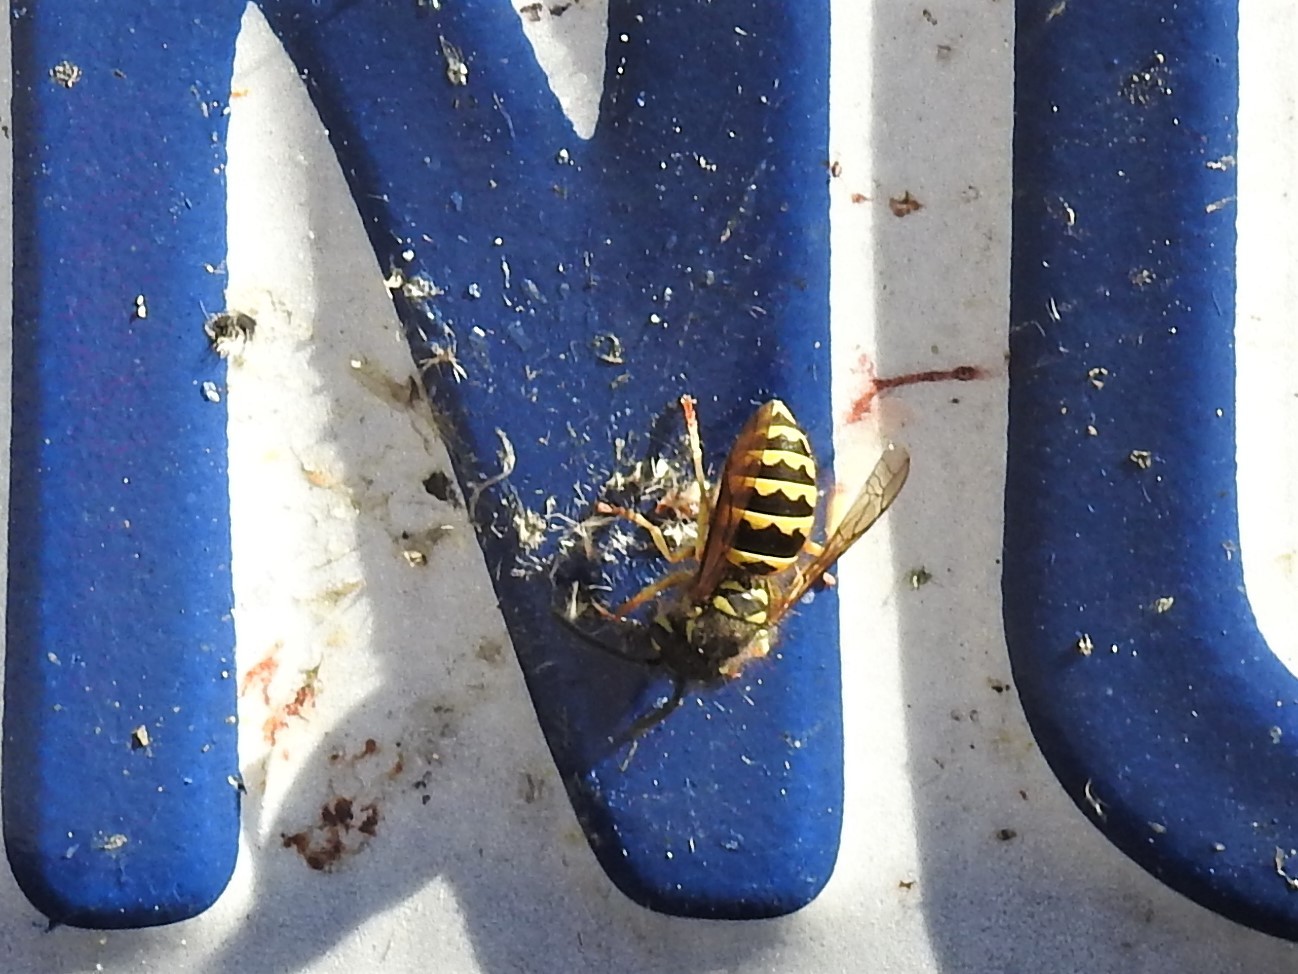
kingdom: Animalia
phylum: Arthropoda
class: Insecta
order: Hymenoptera
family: Vespidae
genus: Vespula
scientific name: Vespula alascensis
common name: Alaska yellowjacket
